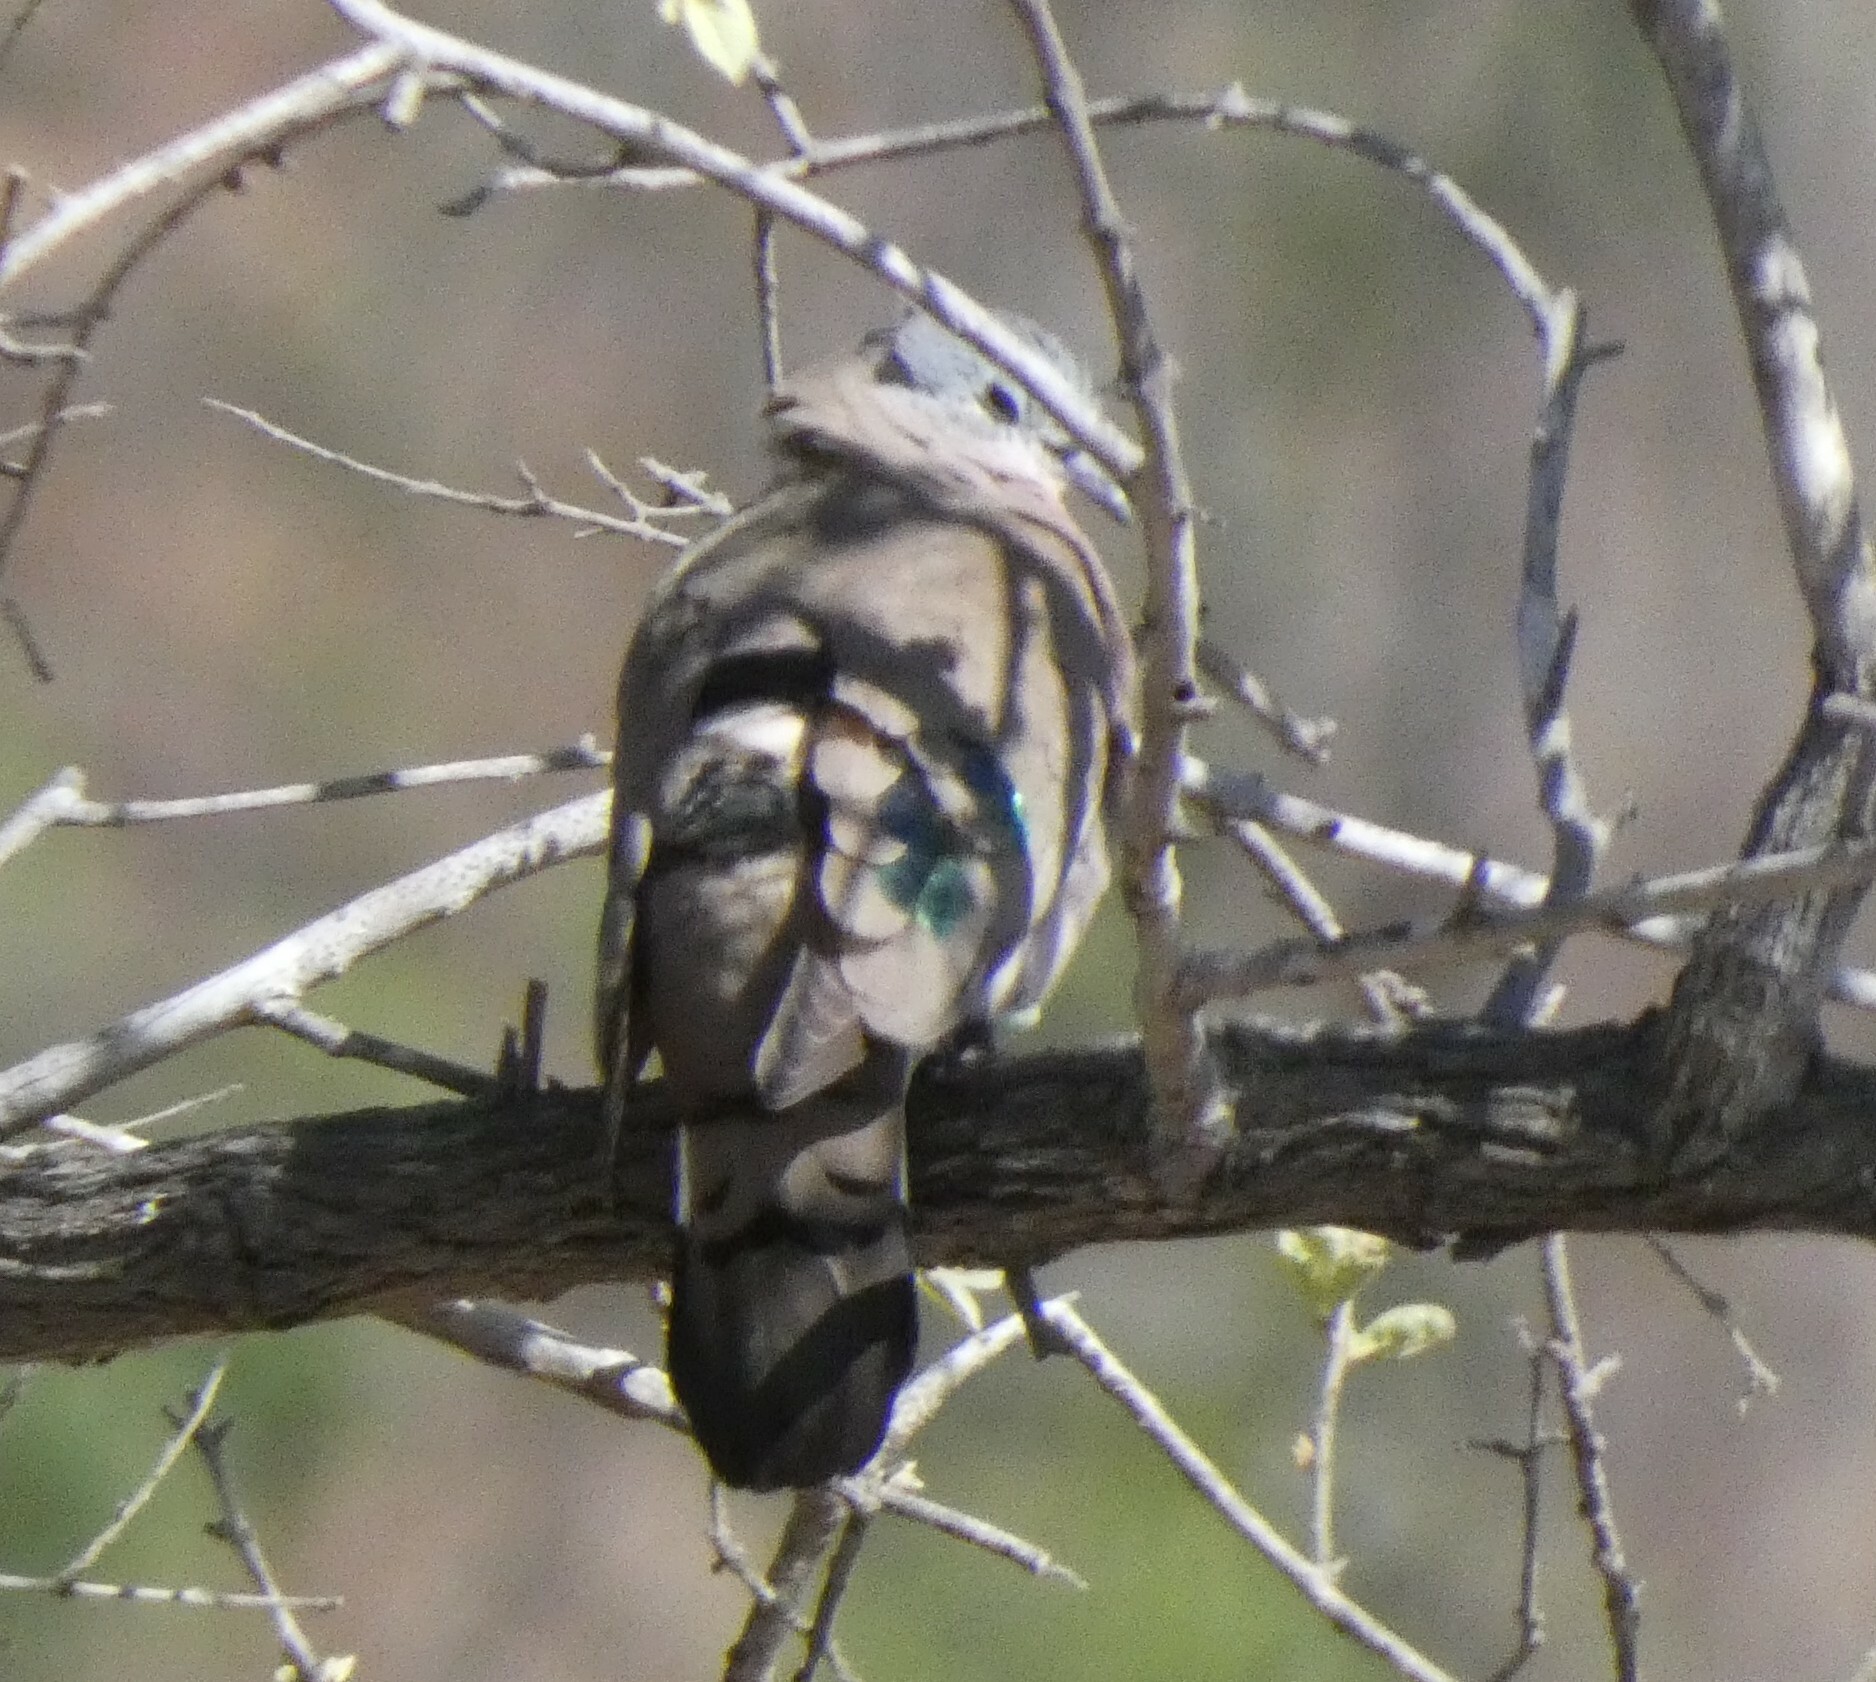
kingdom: Animalia
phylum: Chordata
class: Aves
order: Columbiformes
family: Columbidae
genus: Turtur
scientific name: Turtur chalcospilos
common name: Emerald-spotted wood dove
